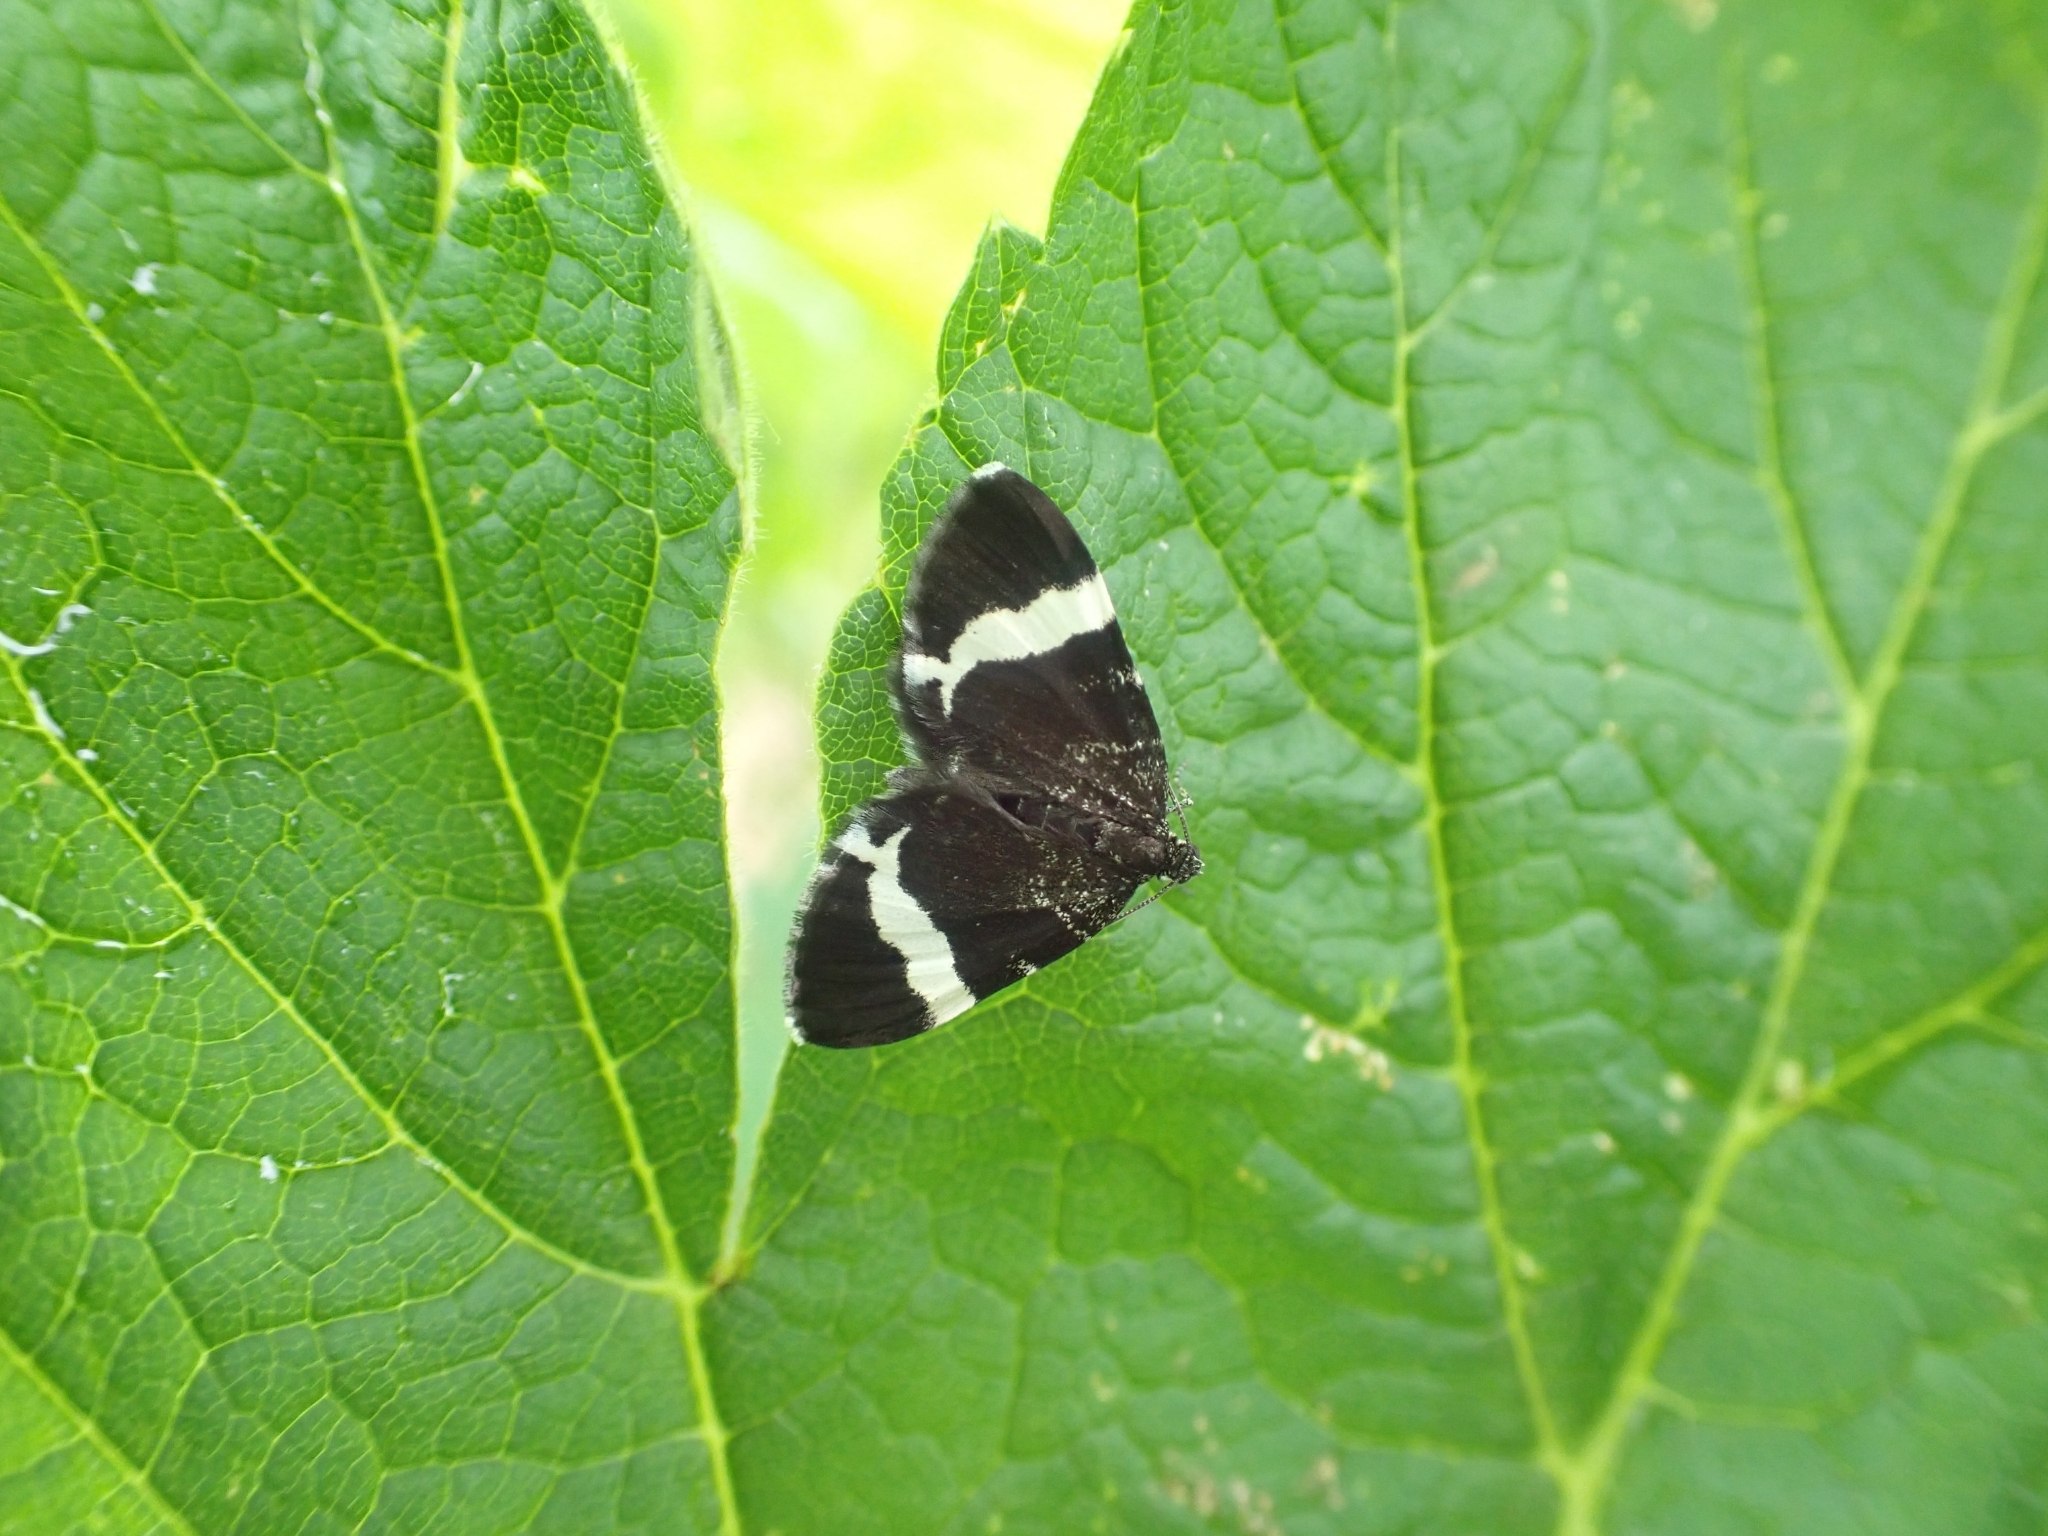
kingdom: Animalia
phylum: Arthropoda
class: Insecta
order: Lepidoptera
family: Geometridae
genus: Trichodezia
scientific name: Trichodezia albovittata
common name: White striped black
